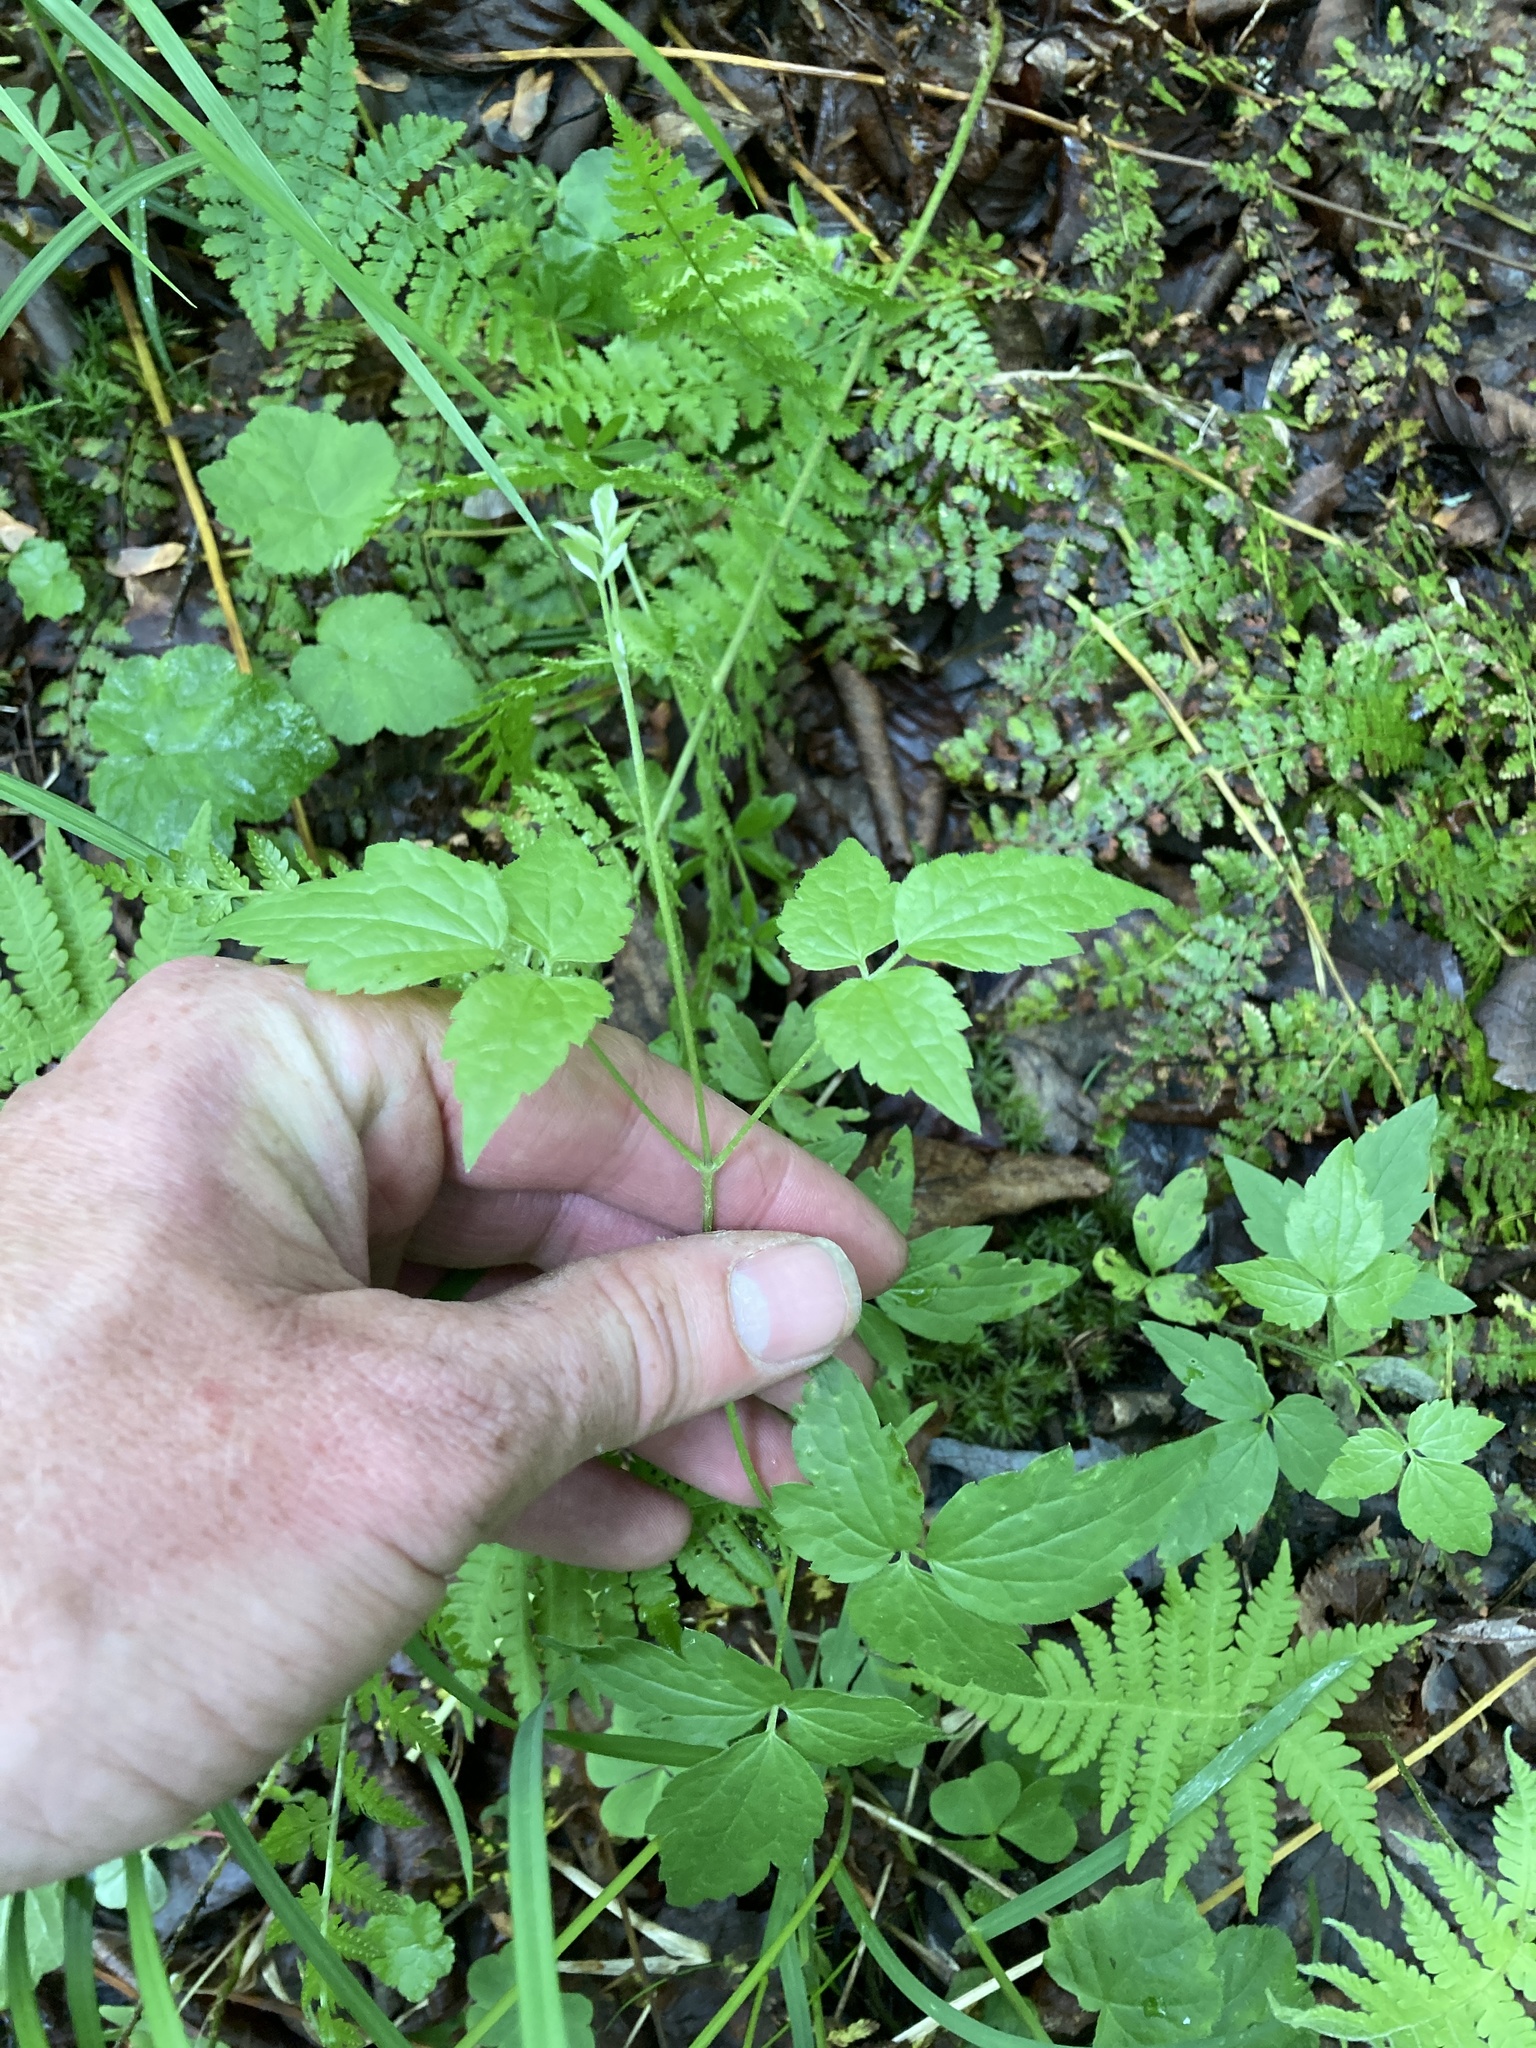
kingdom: Plantae
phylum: Tracheophyta
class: Magnoliopsida
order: Ranunculales
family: Ranunculaceae
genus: Clematis
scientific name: Clematis virginiana
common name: Virgin's-bower
